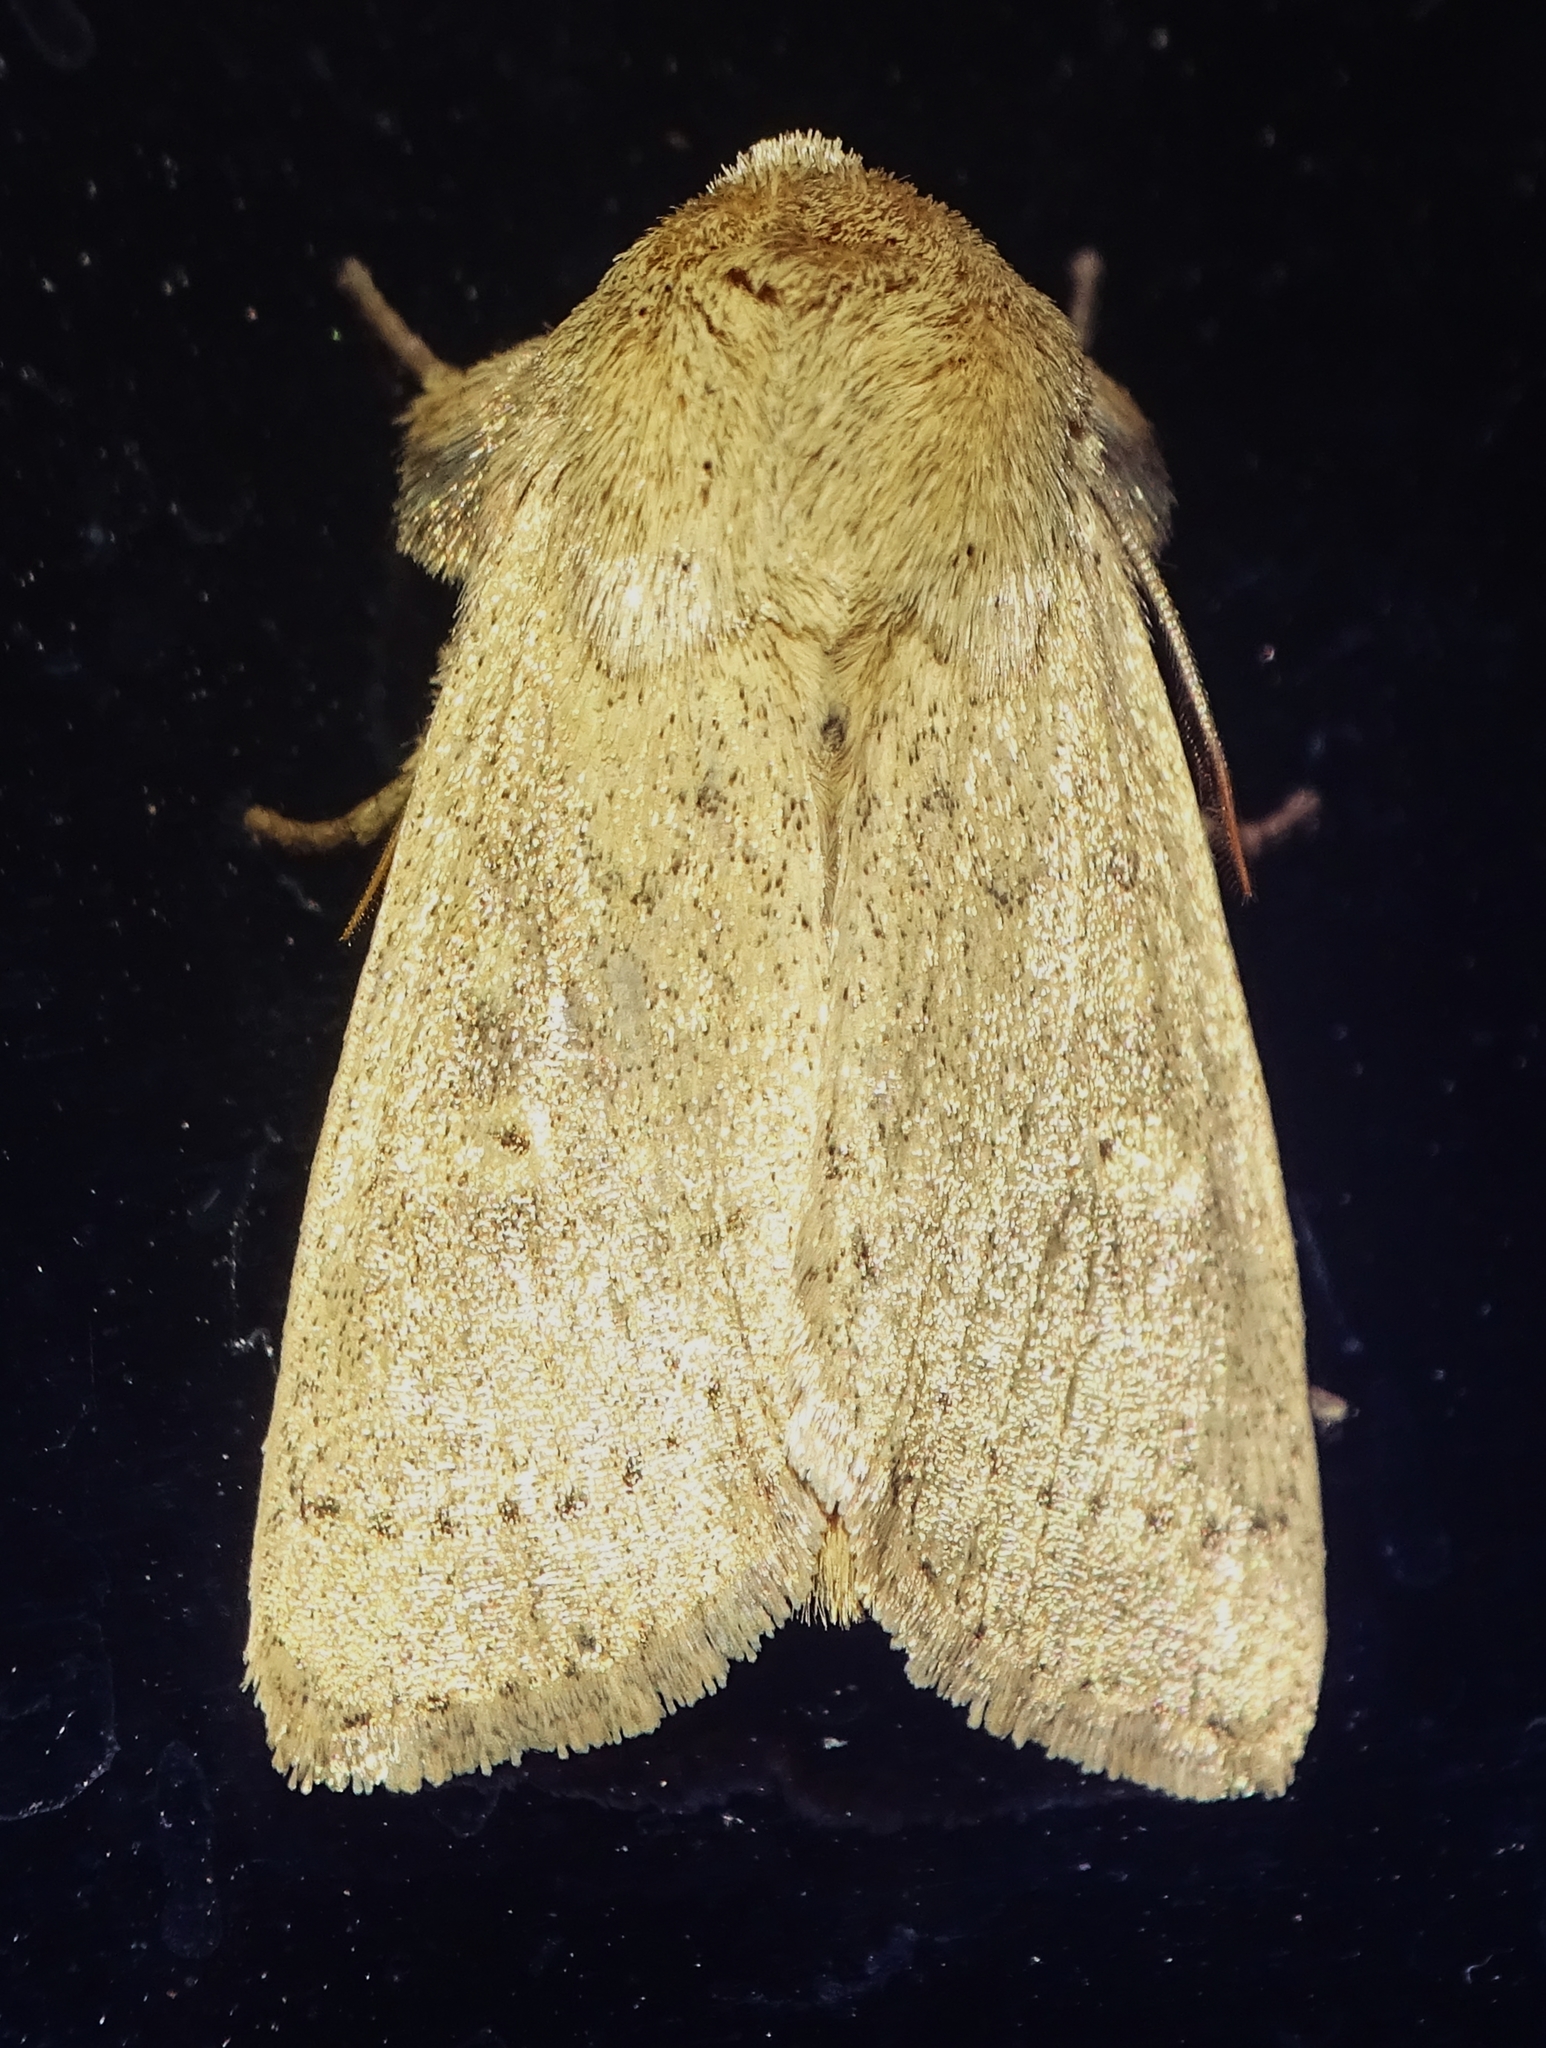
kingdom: Animalia
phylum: Arthropoda
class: Insecta
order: Lepidoptera
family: Noctuidae
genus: Leucania
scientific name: Leucania ursula
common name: Ursula wainscot
